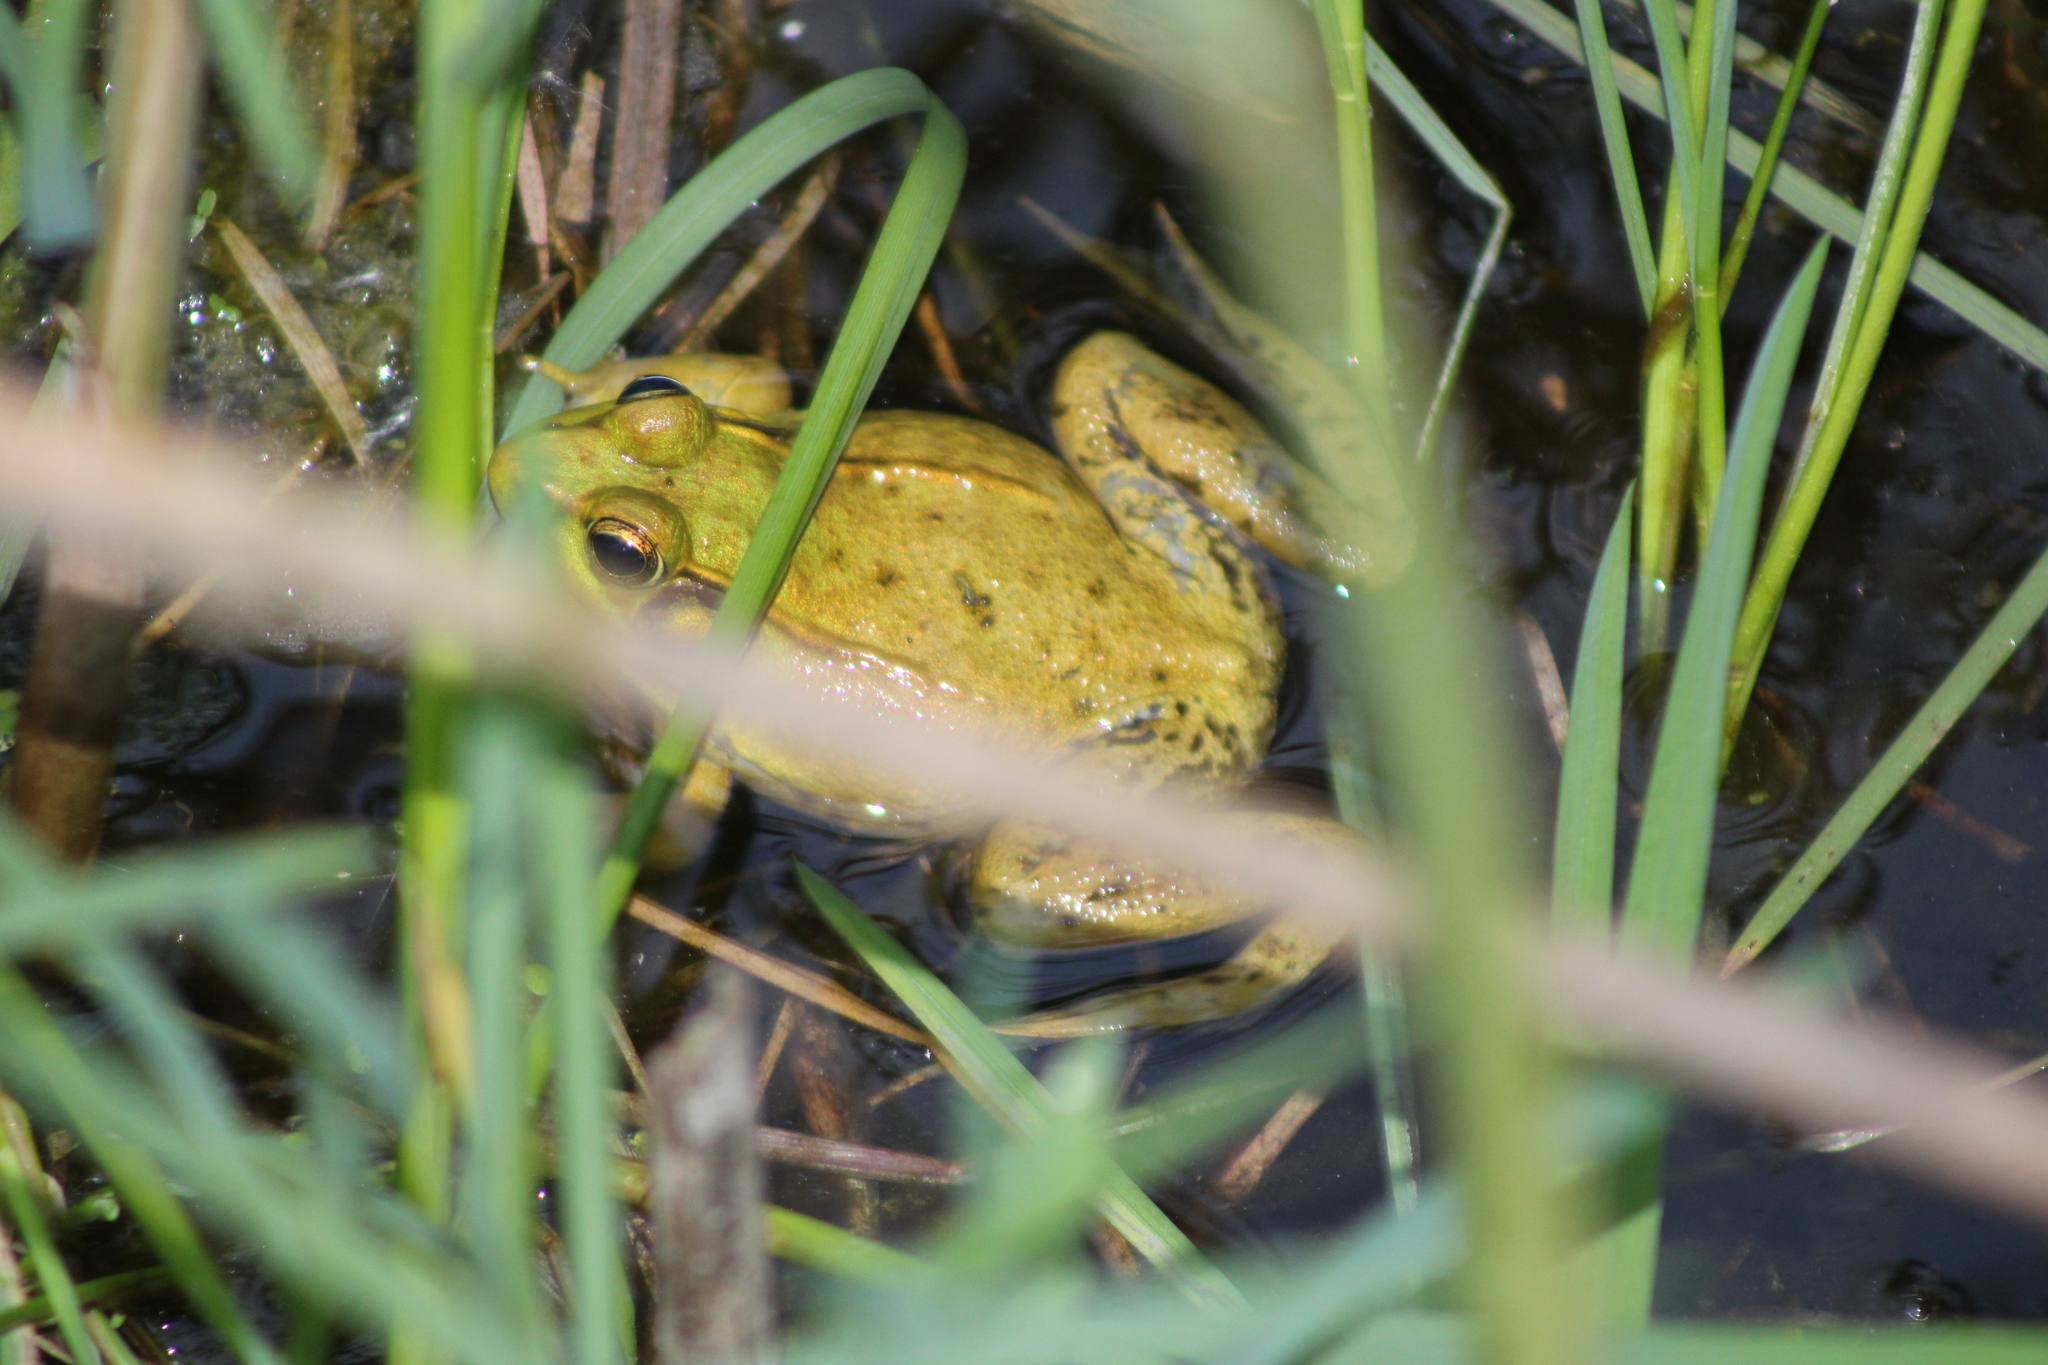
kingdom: Animalia
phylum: Chordata
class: Amphibia
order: Anura
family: Ranidae
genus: Lithobates
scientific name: Lithobates clamitans
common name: Green frog
